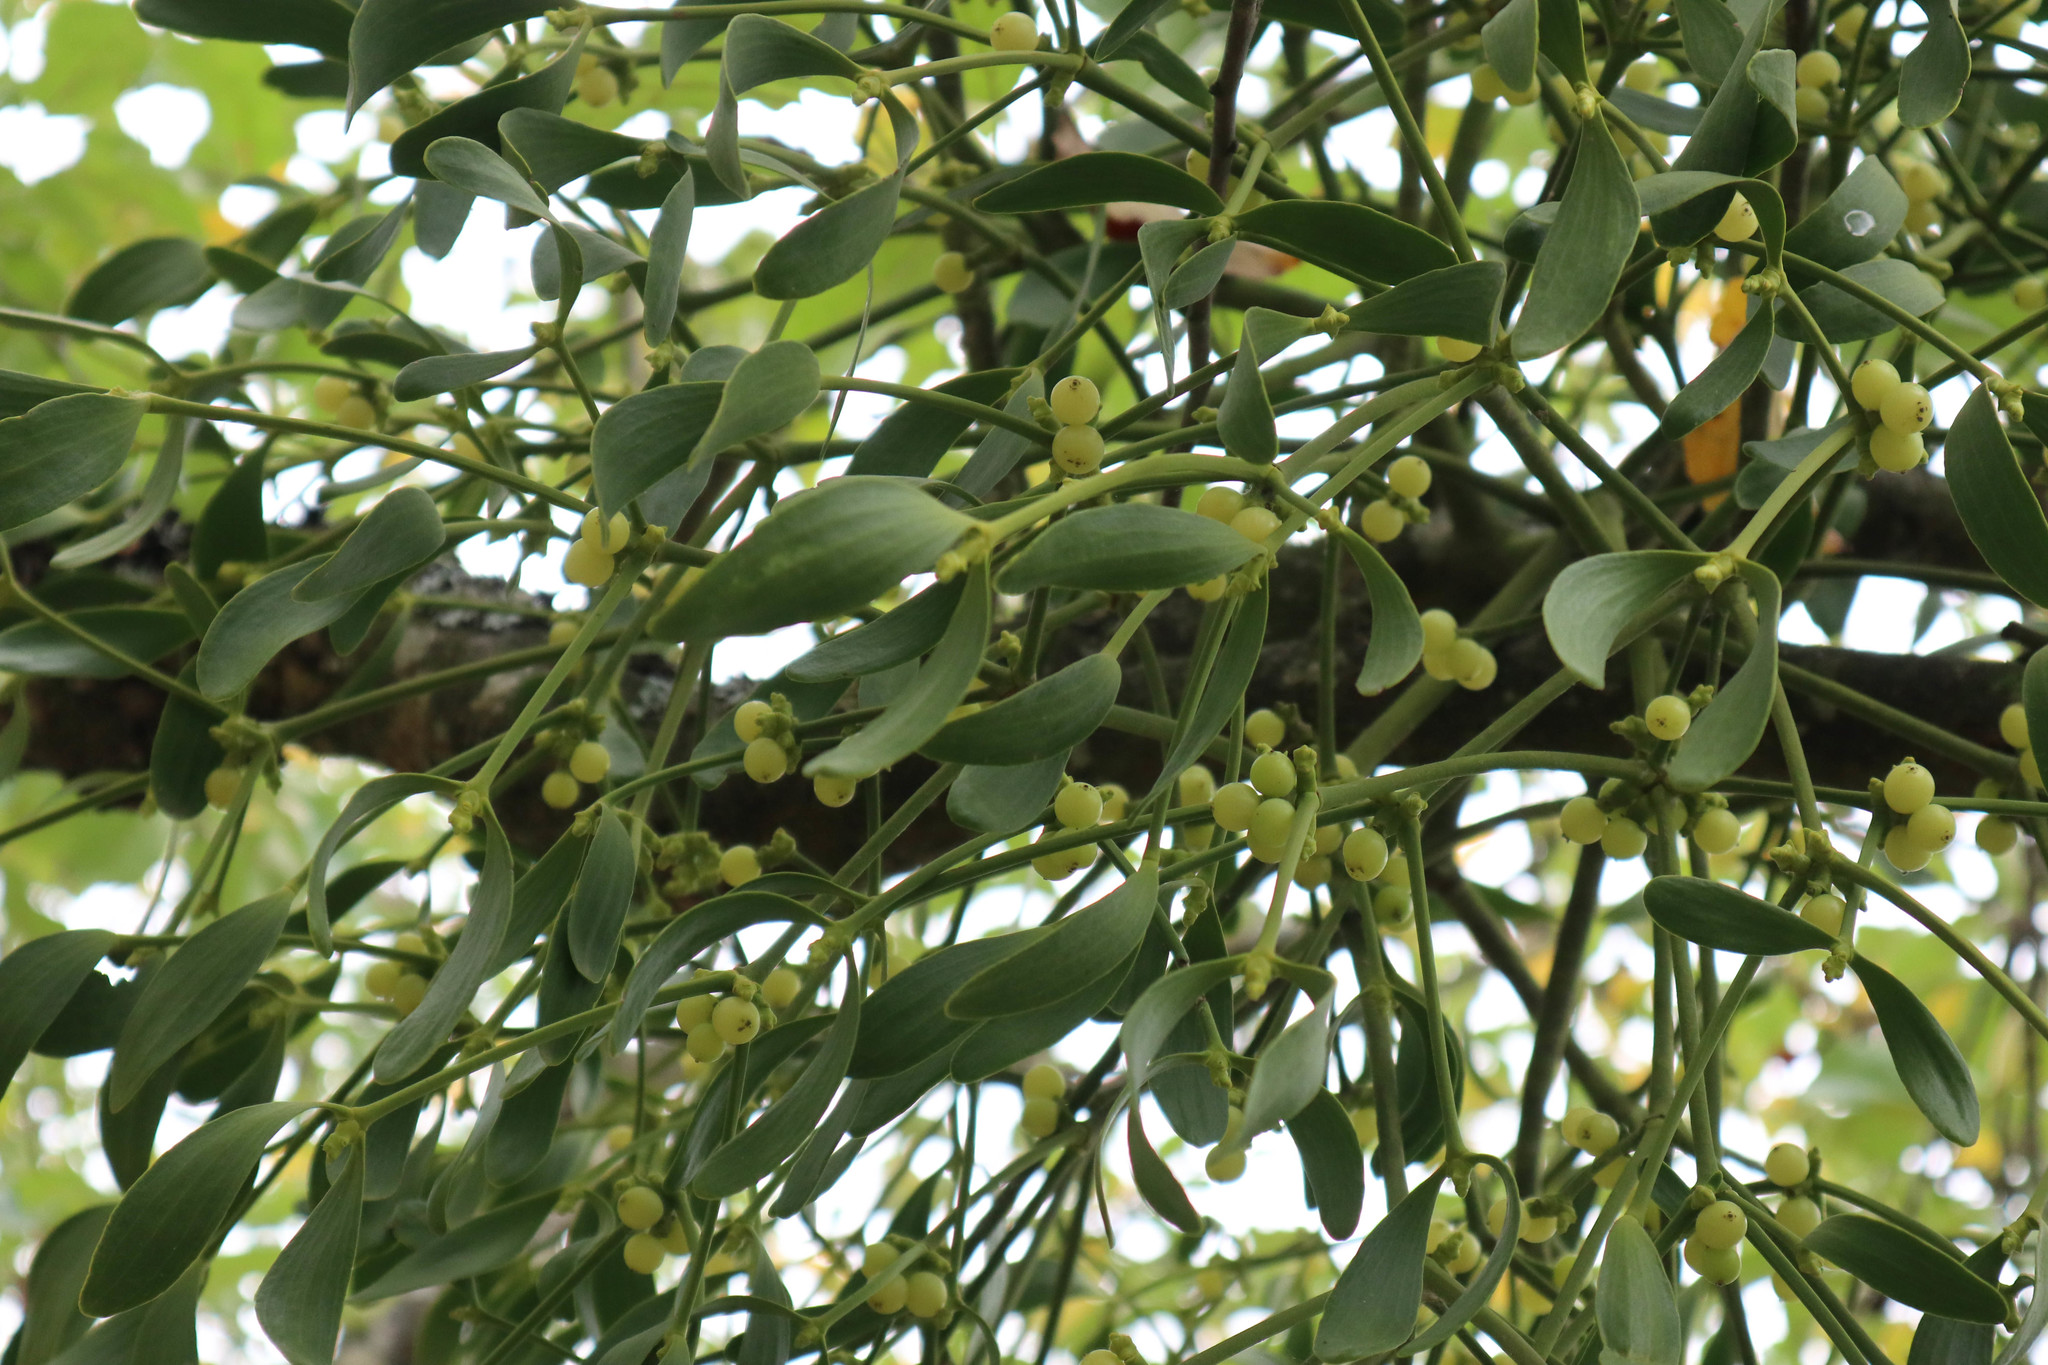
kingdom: Plantae
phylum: Tracheophyta
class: Magnoliopsida
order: Santalales
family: Viscaceae
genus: Viscum
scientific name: Viscum album
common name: Mistletoe
